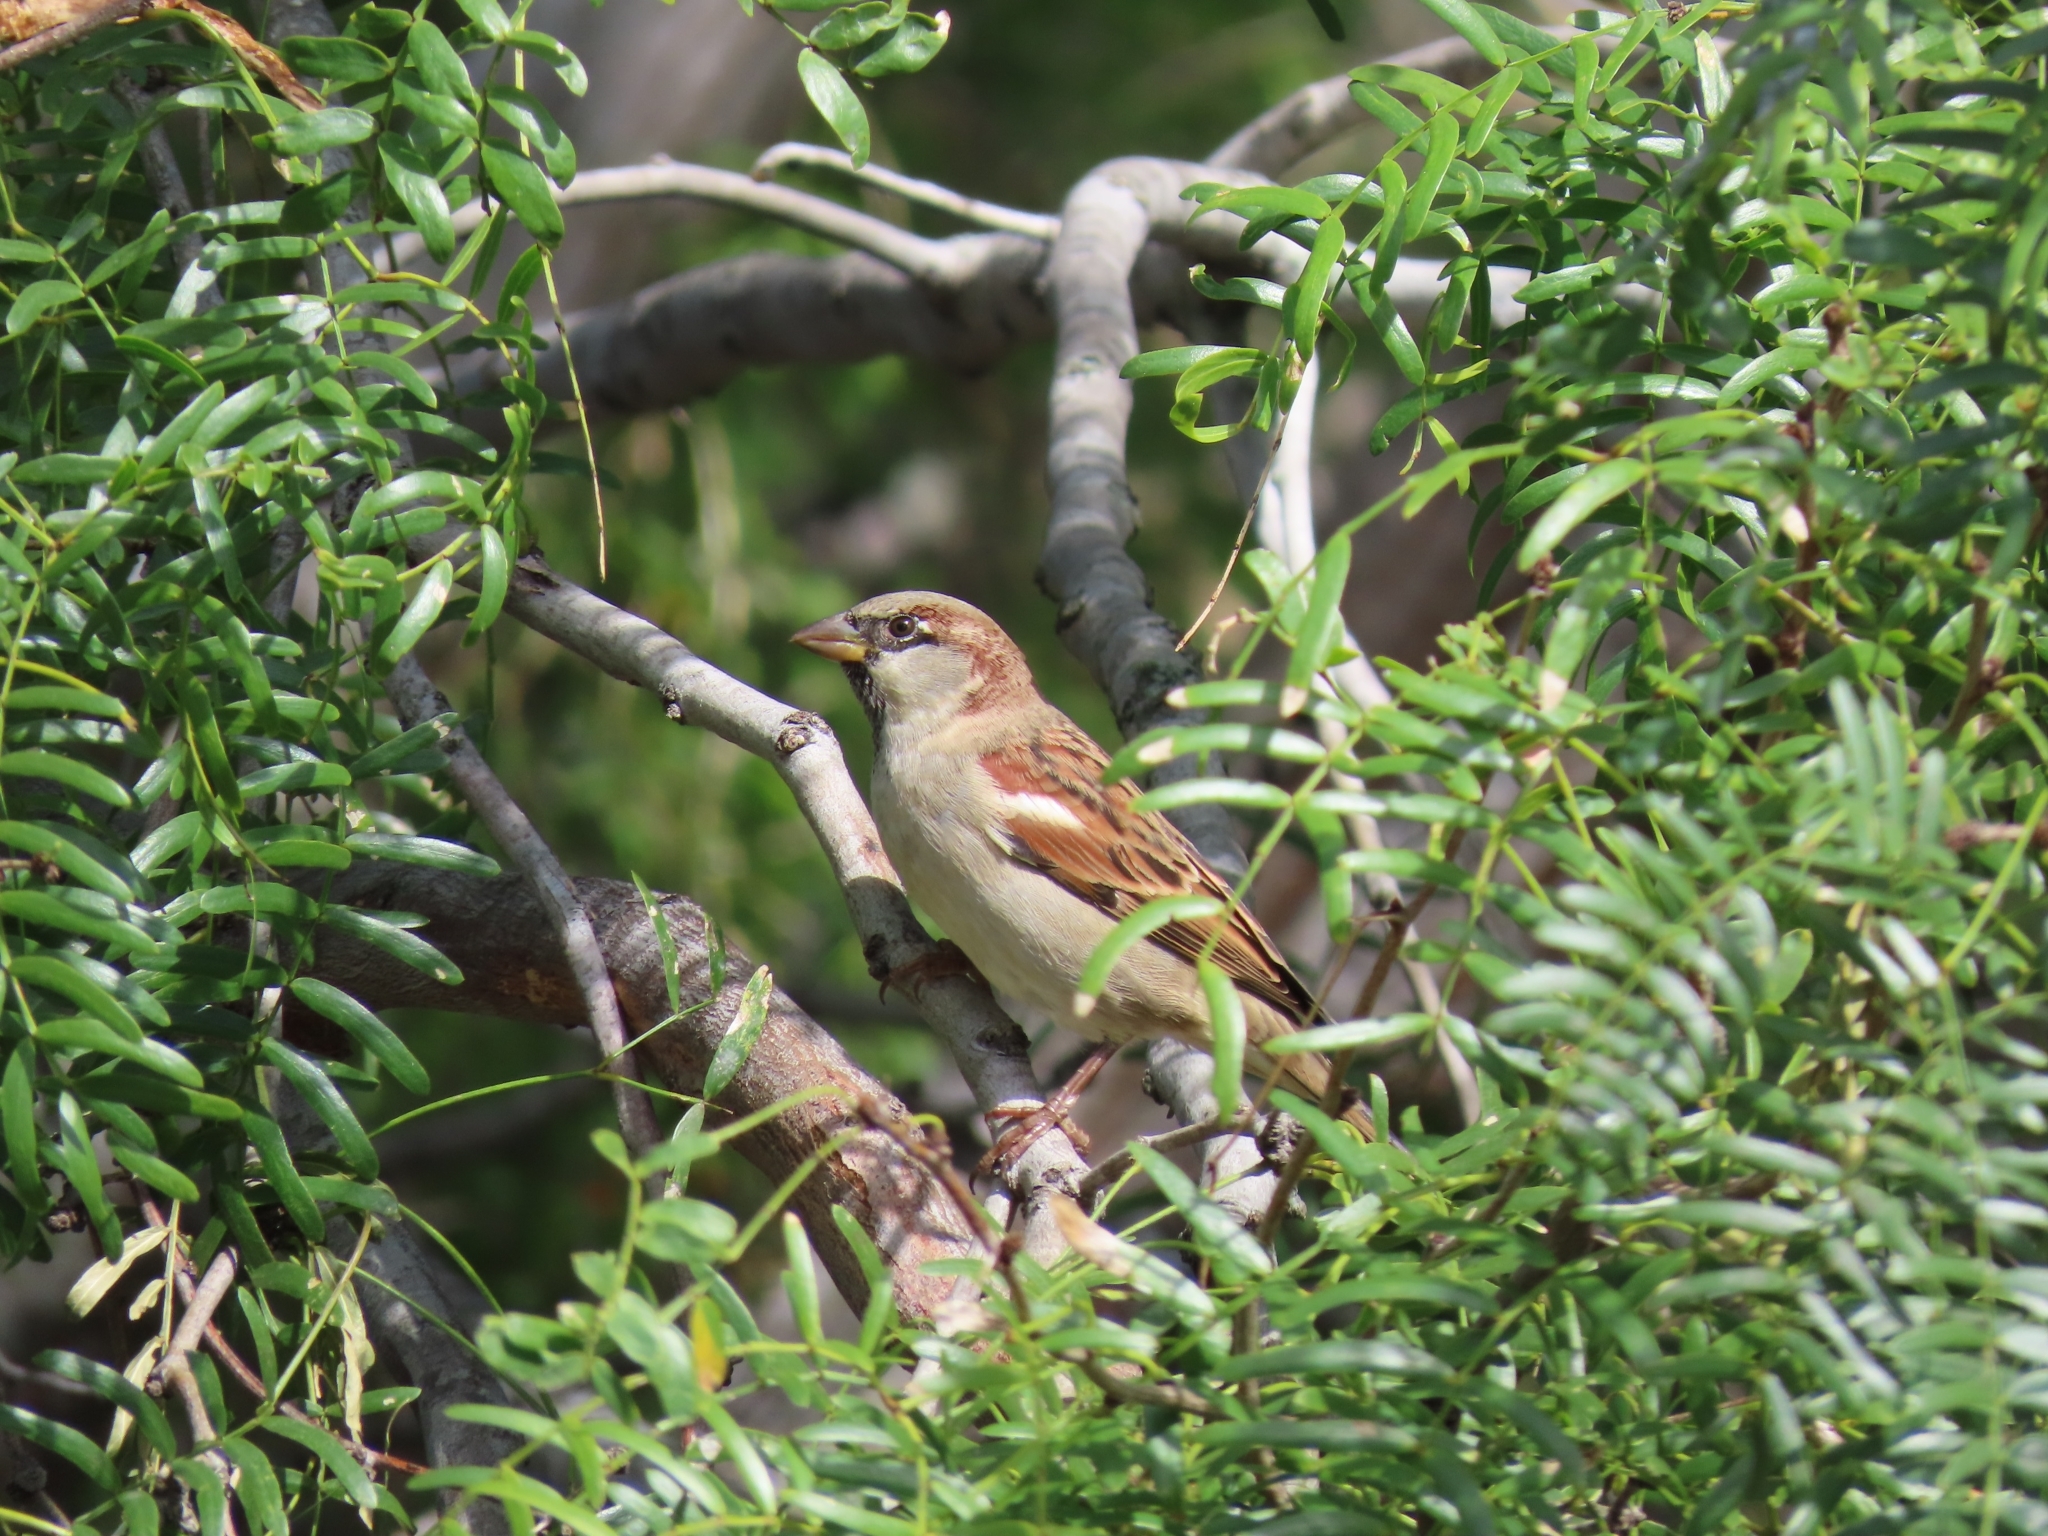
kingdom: Animalia
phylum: Chordata
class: Aves
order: Passeriformes
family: Passeridae
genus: Passer
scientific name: Passer domesticus
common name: House sparrow
